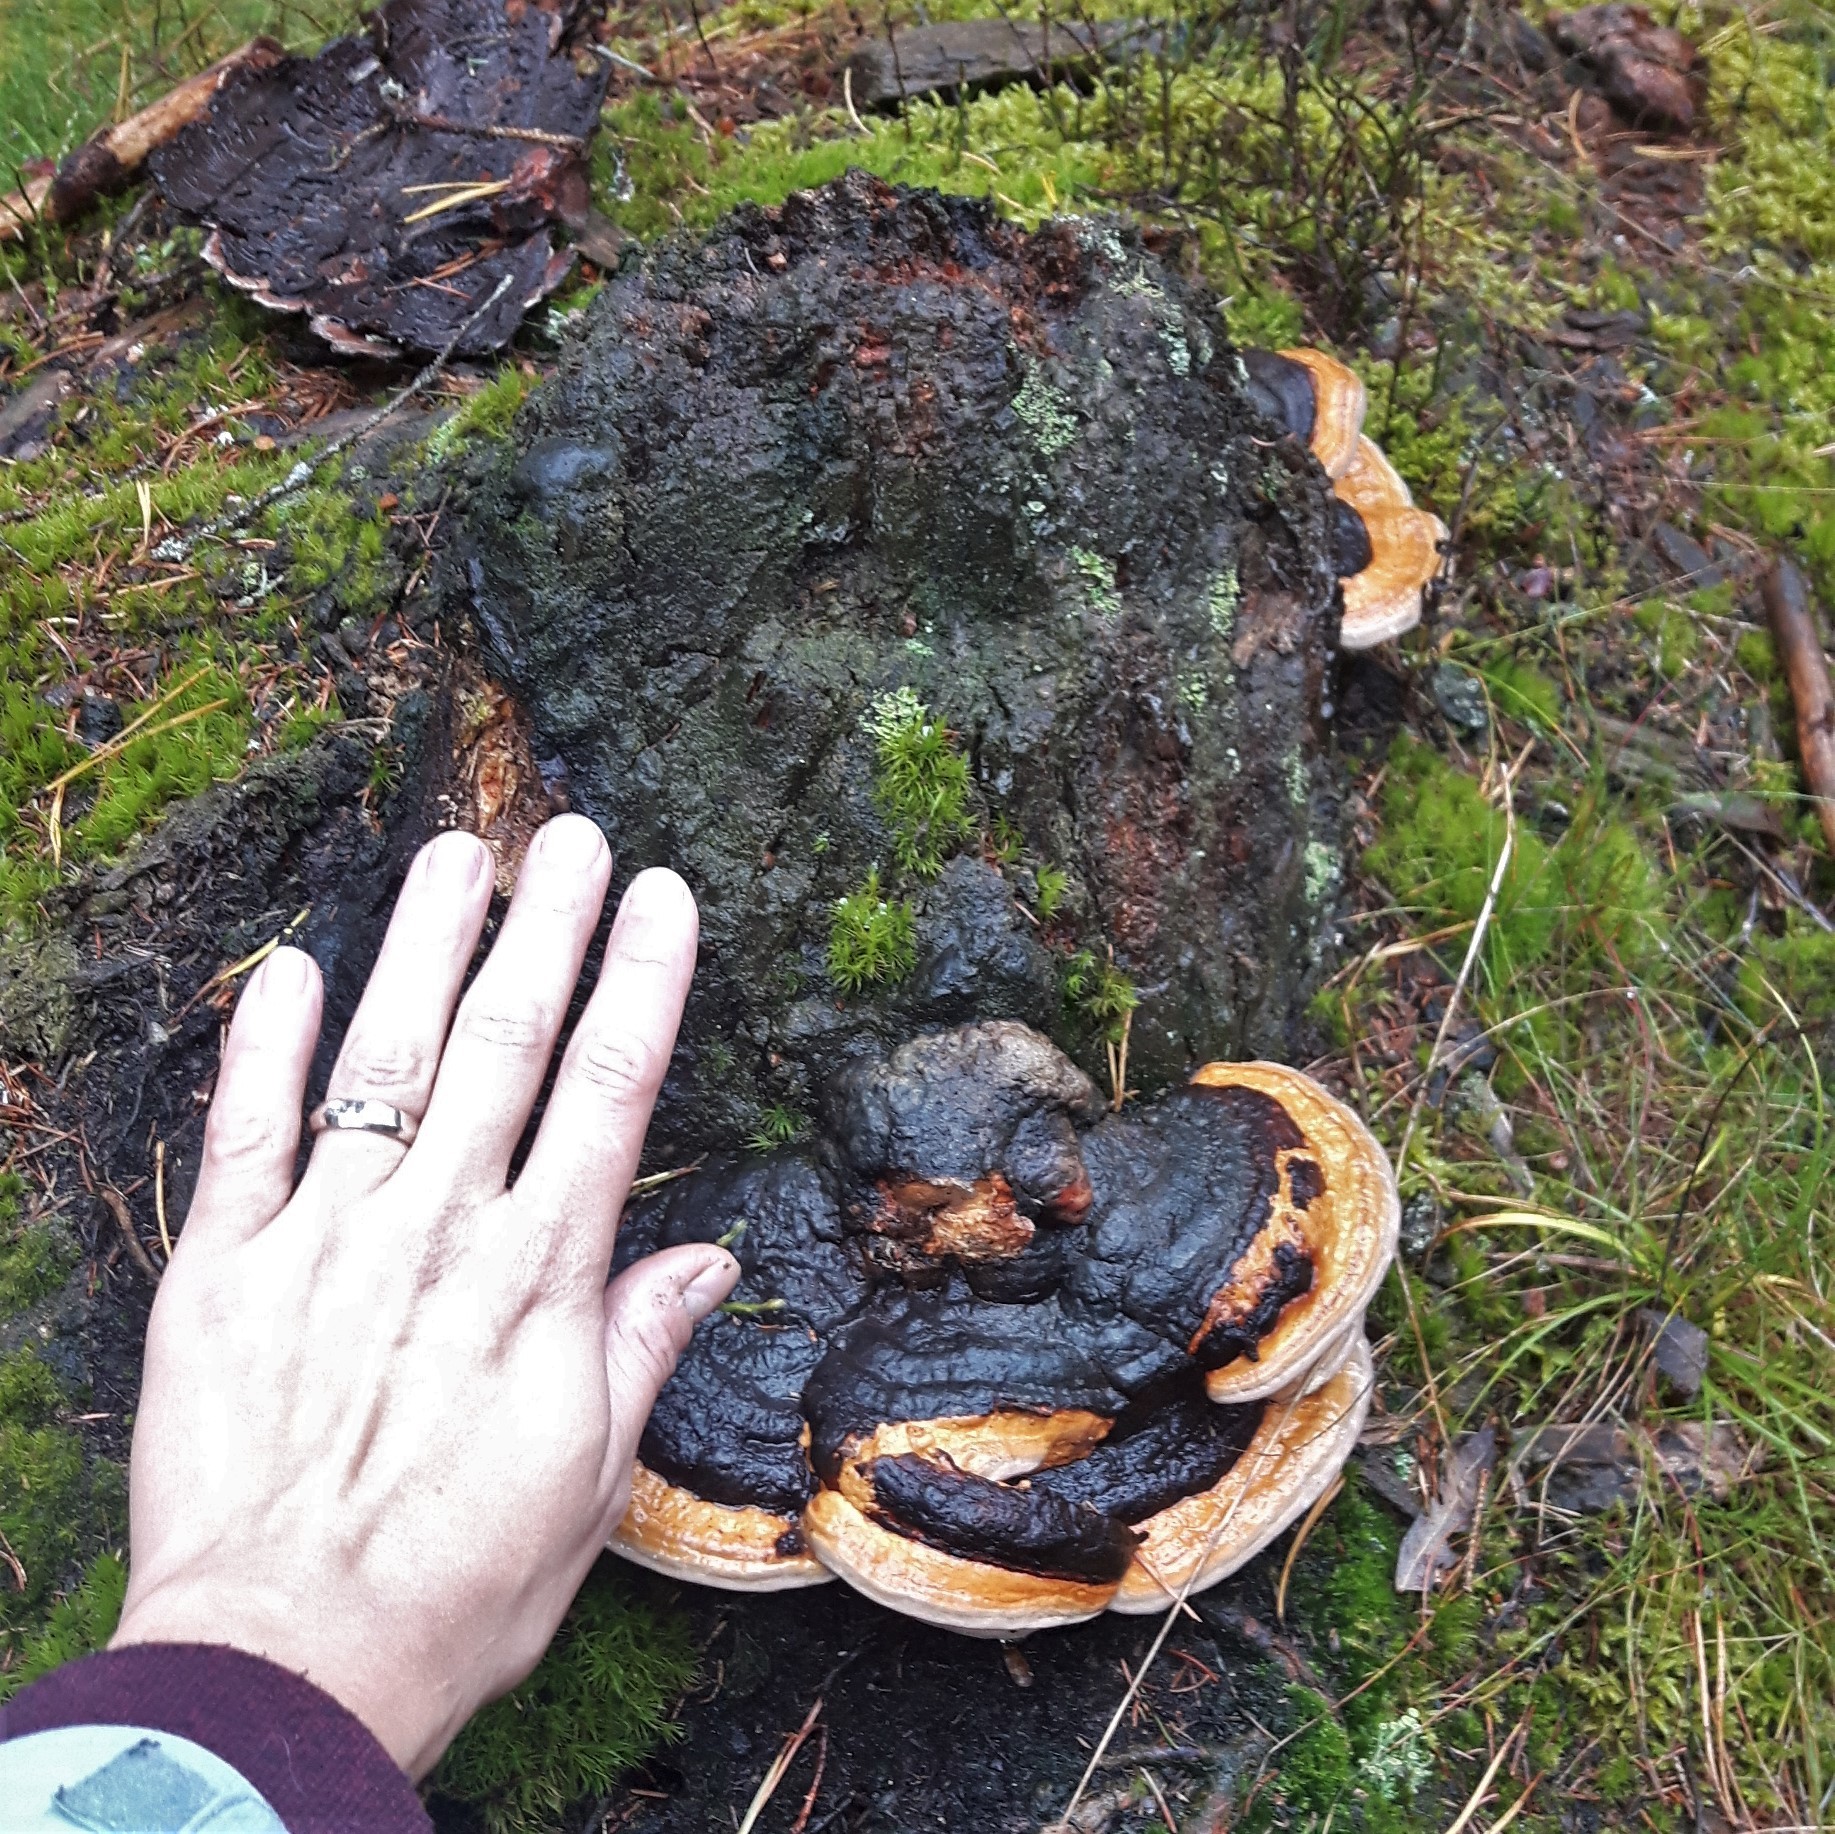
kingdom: Fungi
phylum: Basidiomycota
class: Agaricomycetes
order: Polyporales
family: Fomitopsidaceae
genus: Fomitopsis
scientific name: Fomitopsis pinicola
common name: Red-belted bracket
